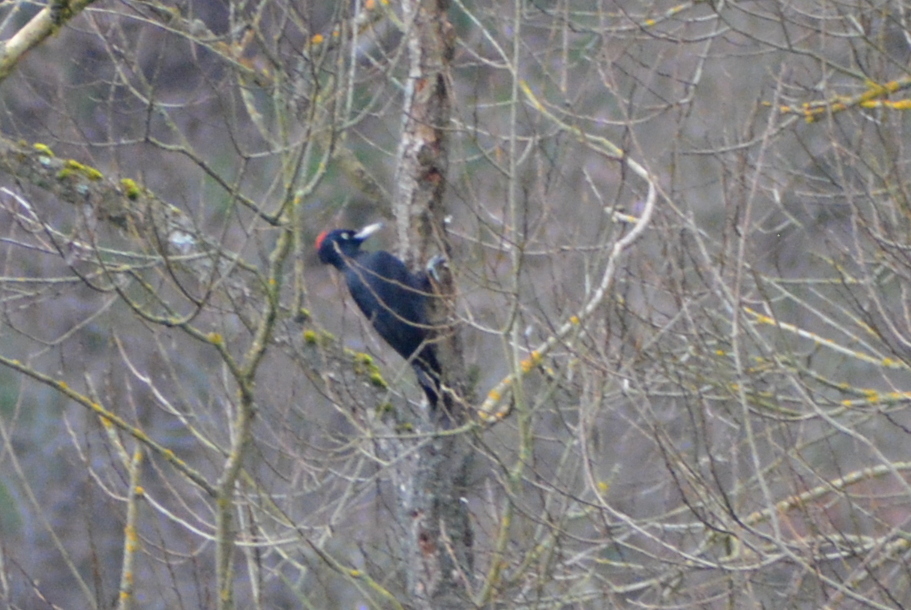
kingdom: Animalia
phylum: Chordata
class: Aves
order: Piciformes
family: Picidae
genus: Dryocopus
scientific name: Dryocopus martius
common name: Black woodpecker
